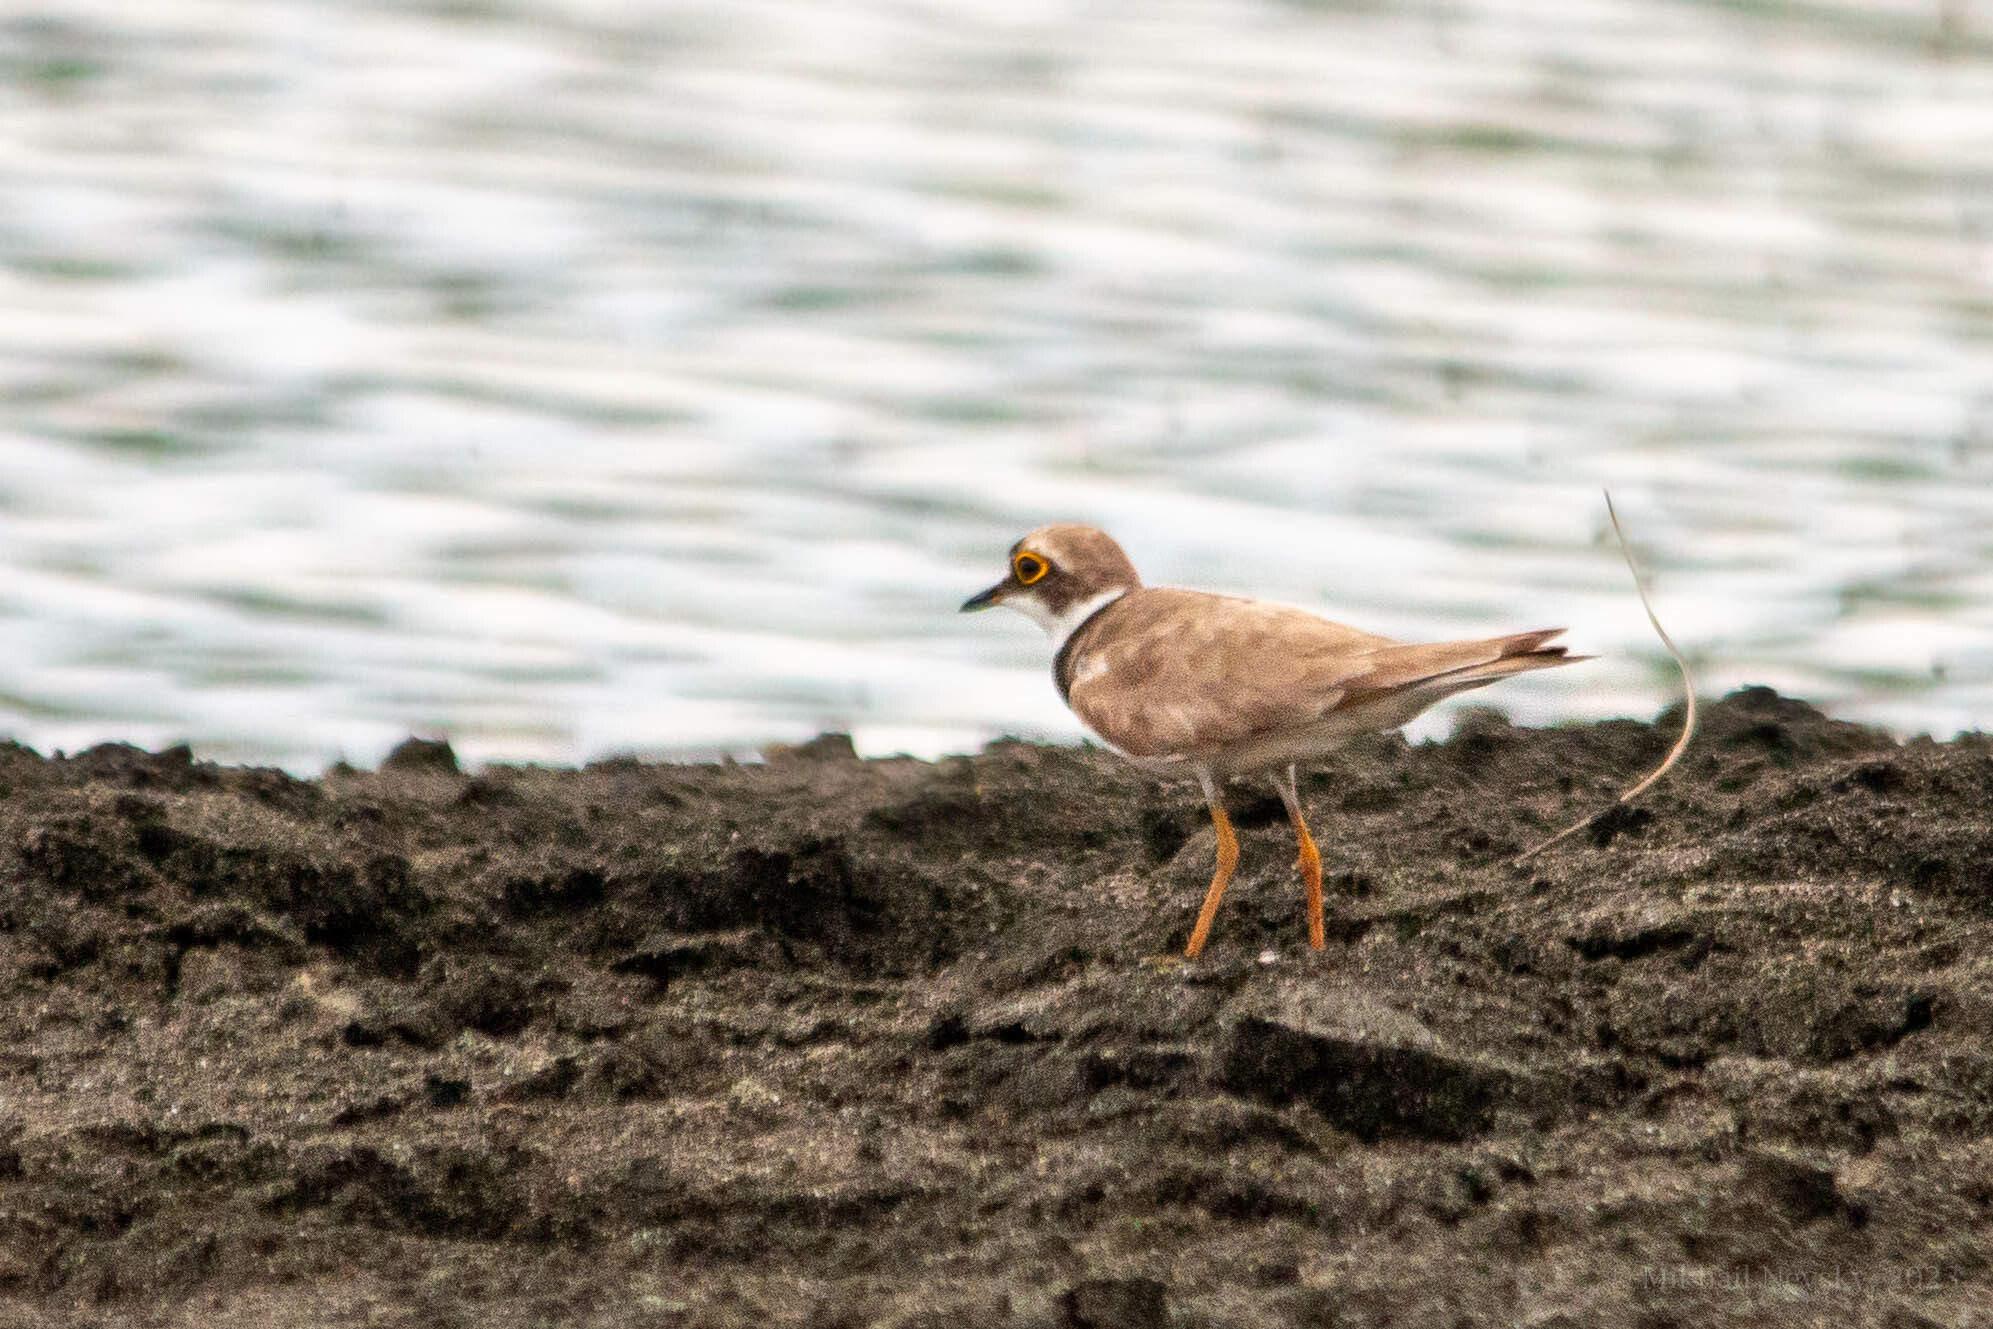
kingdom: Animalia
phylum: Chordata
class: Aves
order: Charadriiformes
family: Charadriidae
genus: Charadrius
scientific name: Charadrius dubius
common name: Little ringed plover
